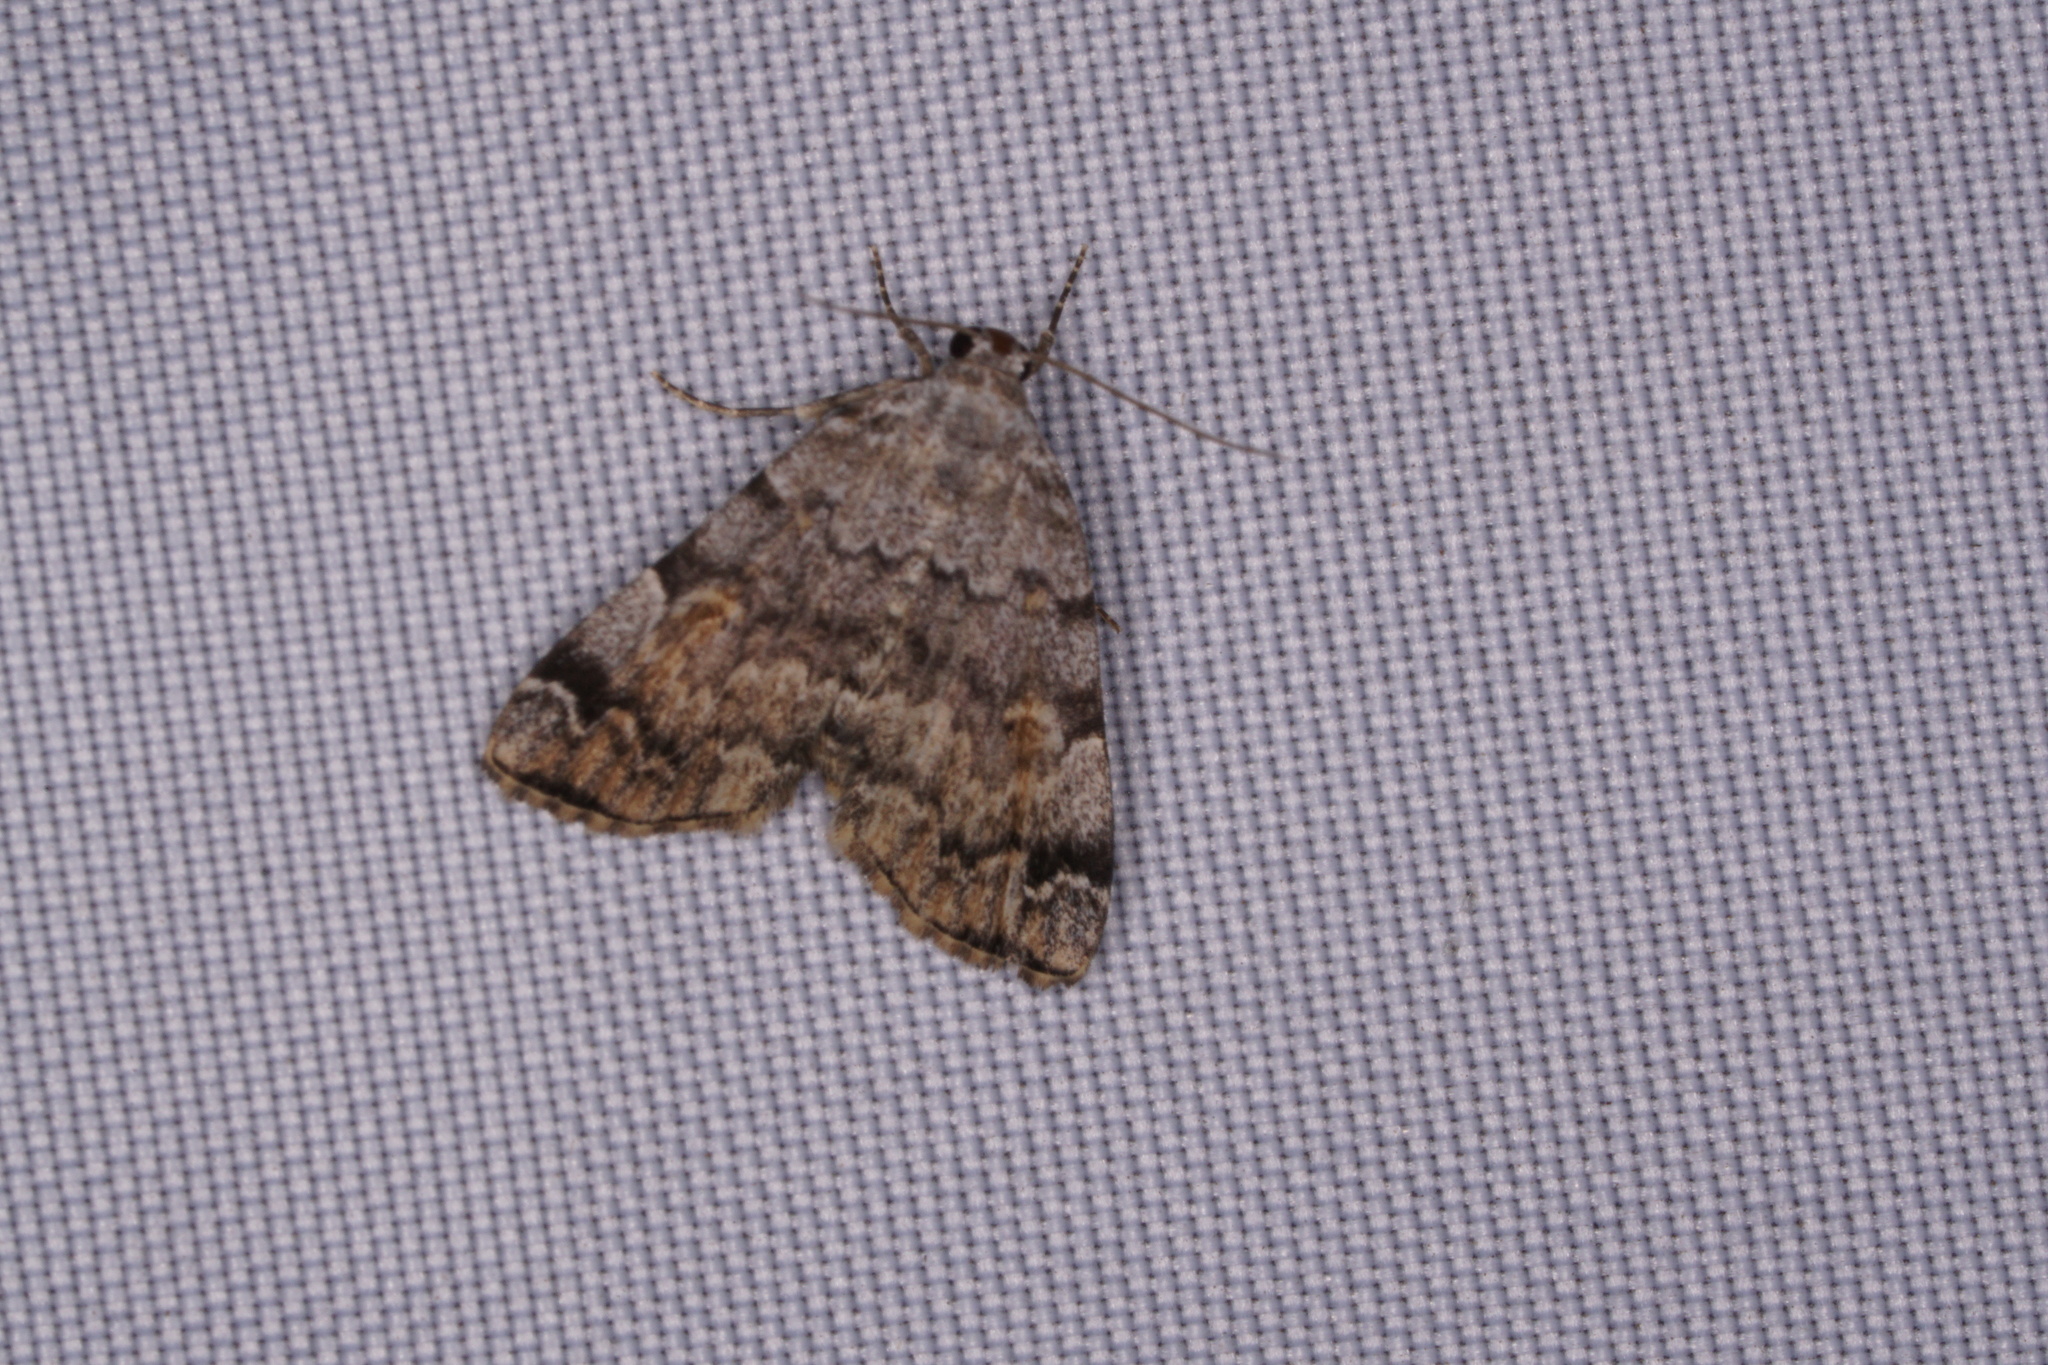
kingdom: Animalia
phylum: Arthropoda
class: Insecta
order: Lepidoptera
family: Erebidae
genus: Idia
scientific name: Idia americalis
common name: American idia moth
